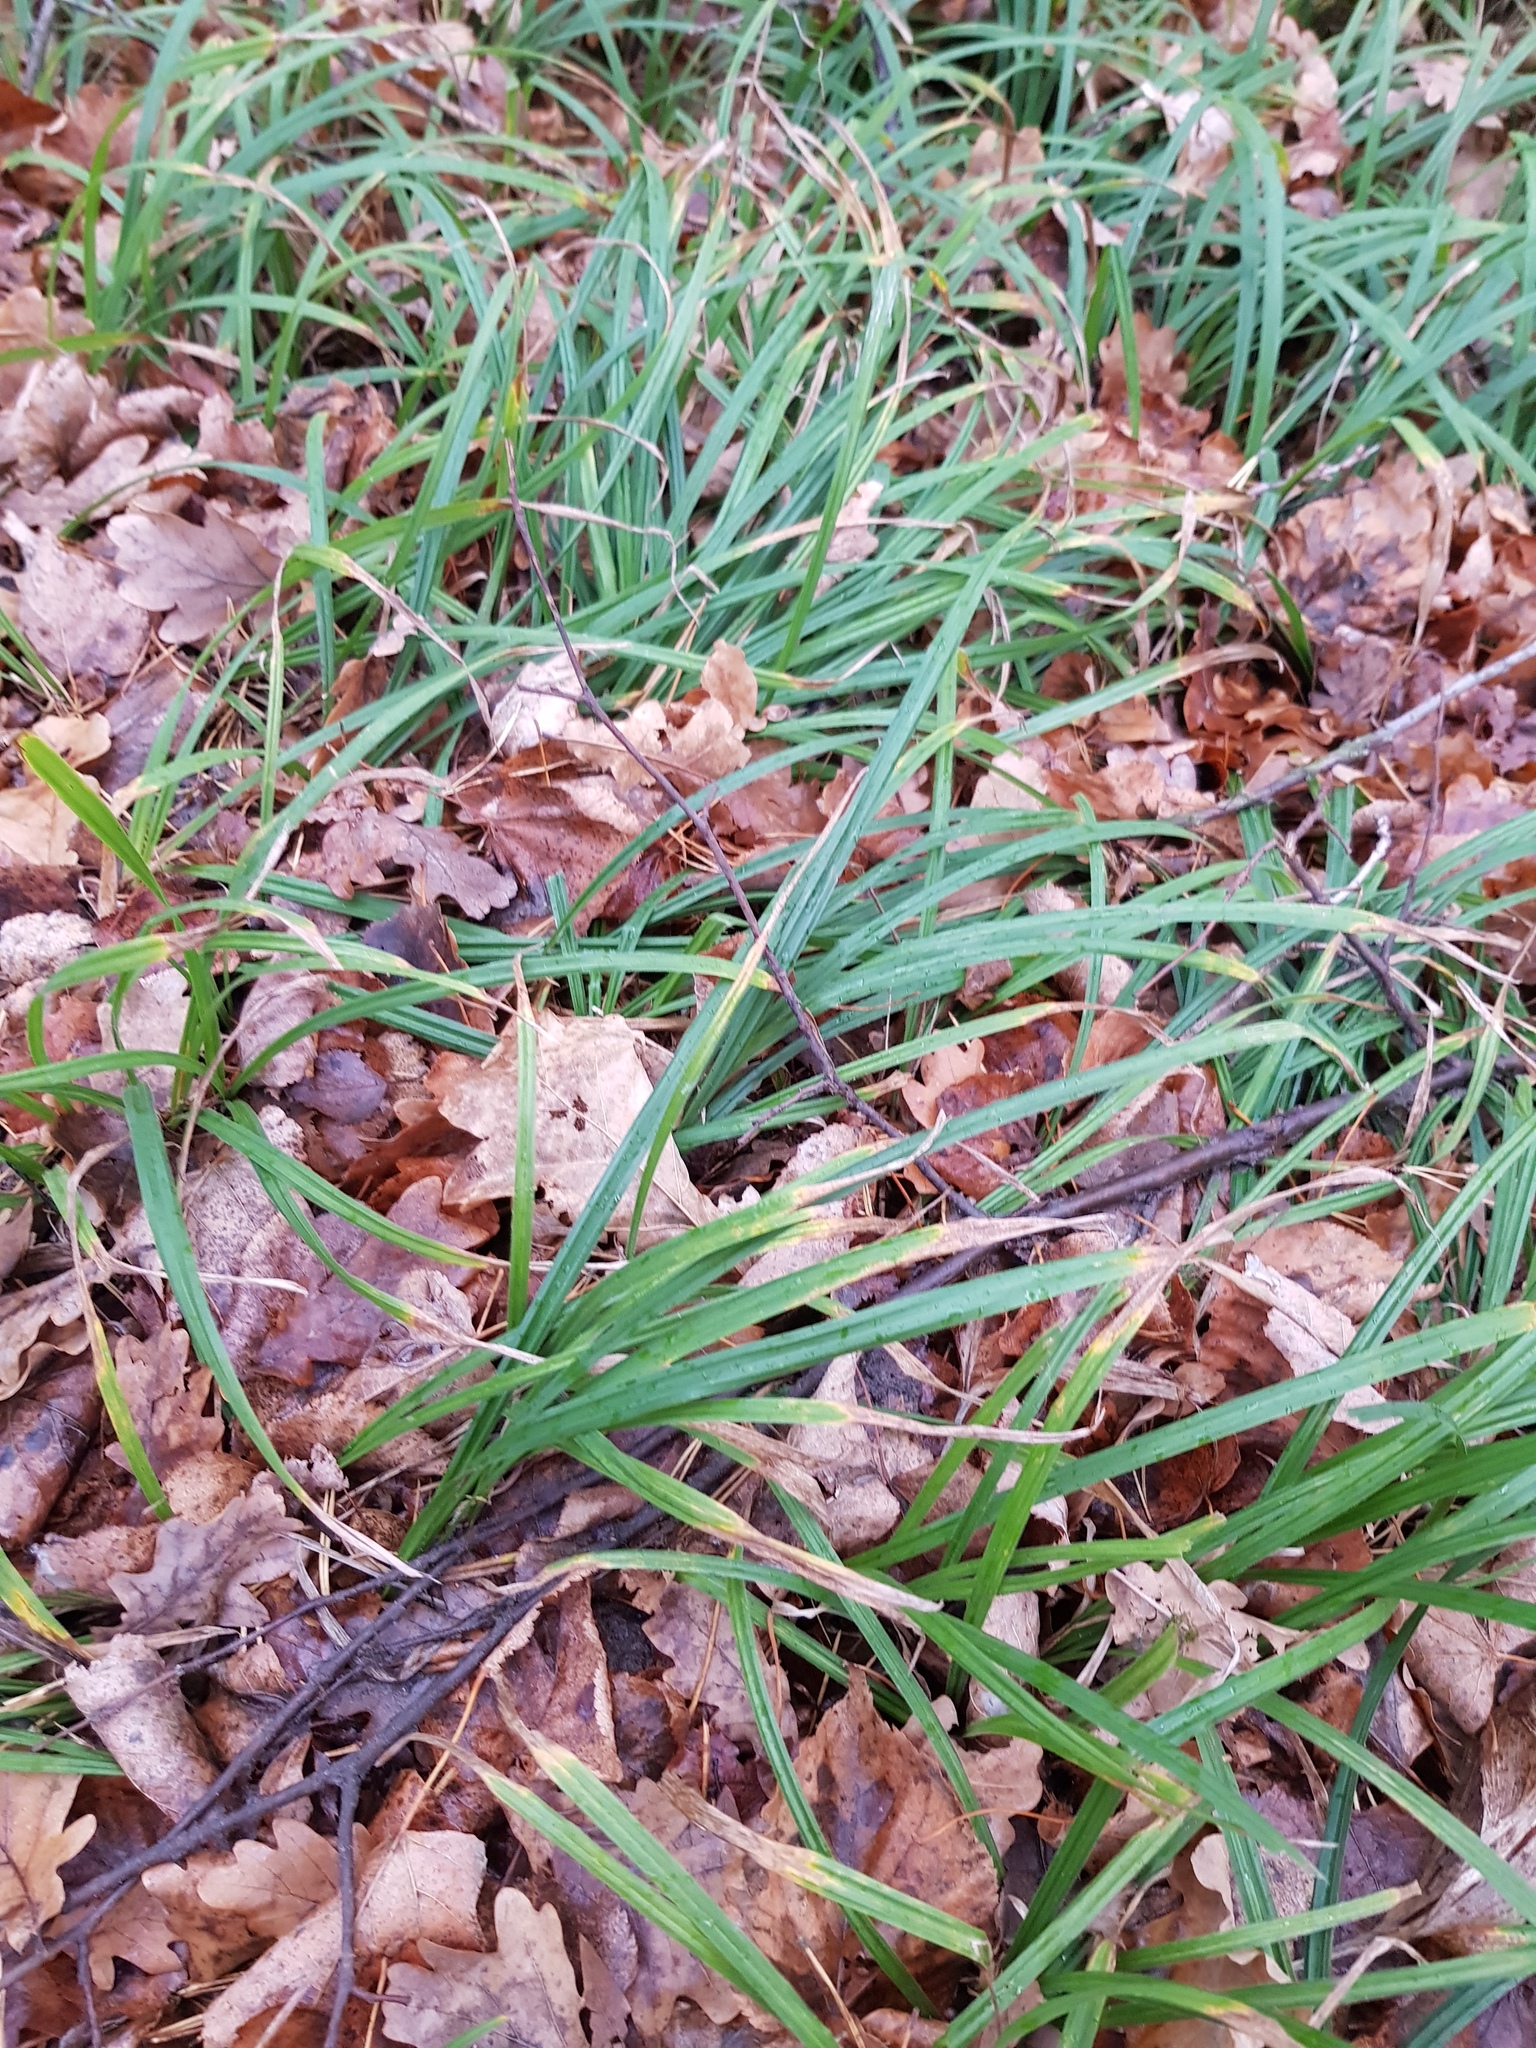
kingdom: Plantae
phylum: Tracheophyta
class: Liliopsida
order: Poales
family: Cyperaceae
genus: Carex
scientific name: Carex pilosa
